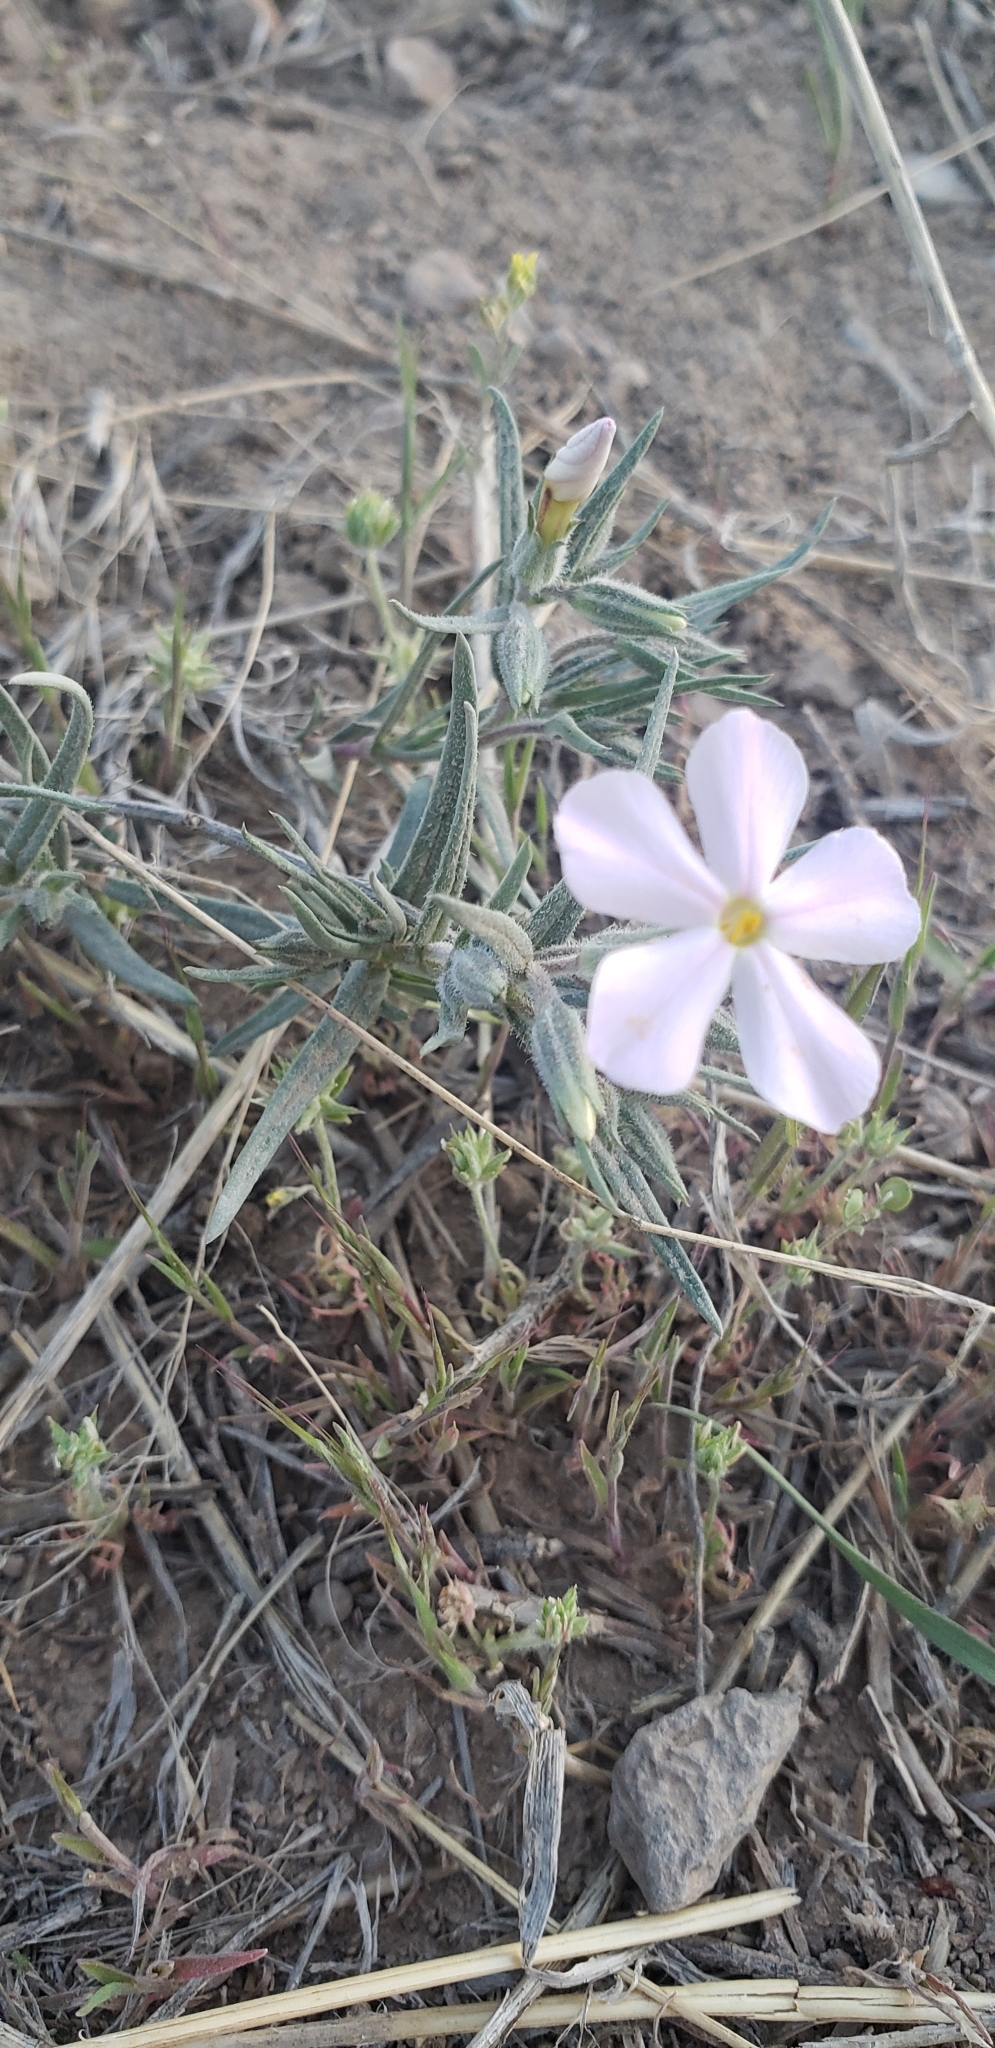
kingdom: Plantae
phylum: Tracheophyta
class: Magnoliopsida
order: Ericales
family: Polemoniaceae
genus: Phlox
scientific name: Phlox longifolia
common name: Longleaf phlox
